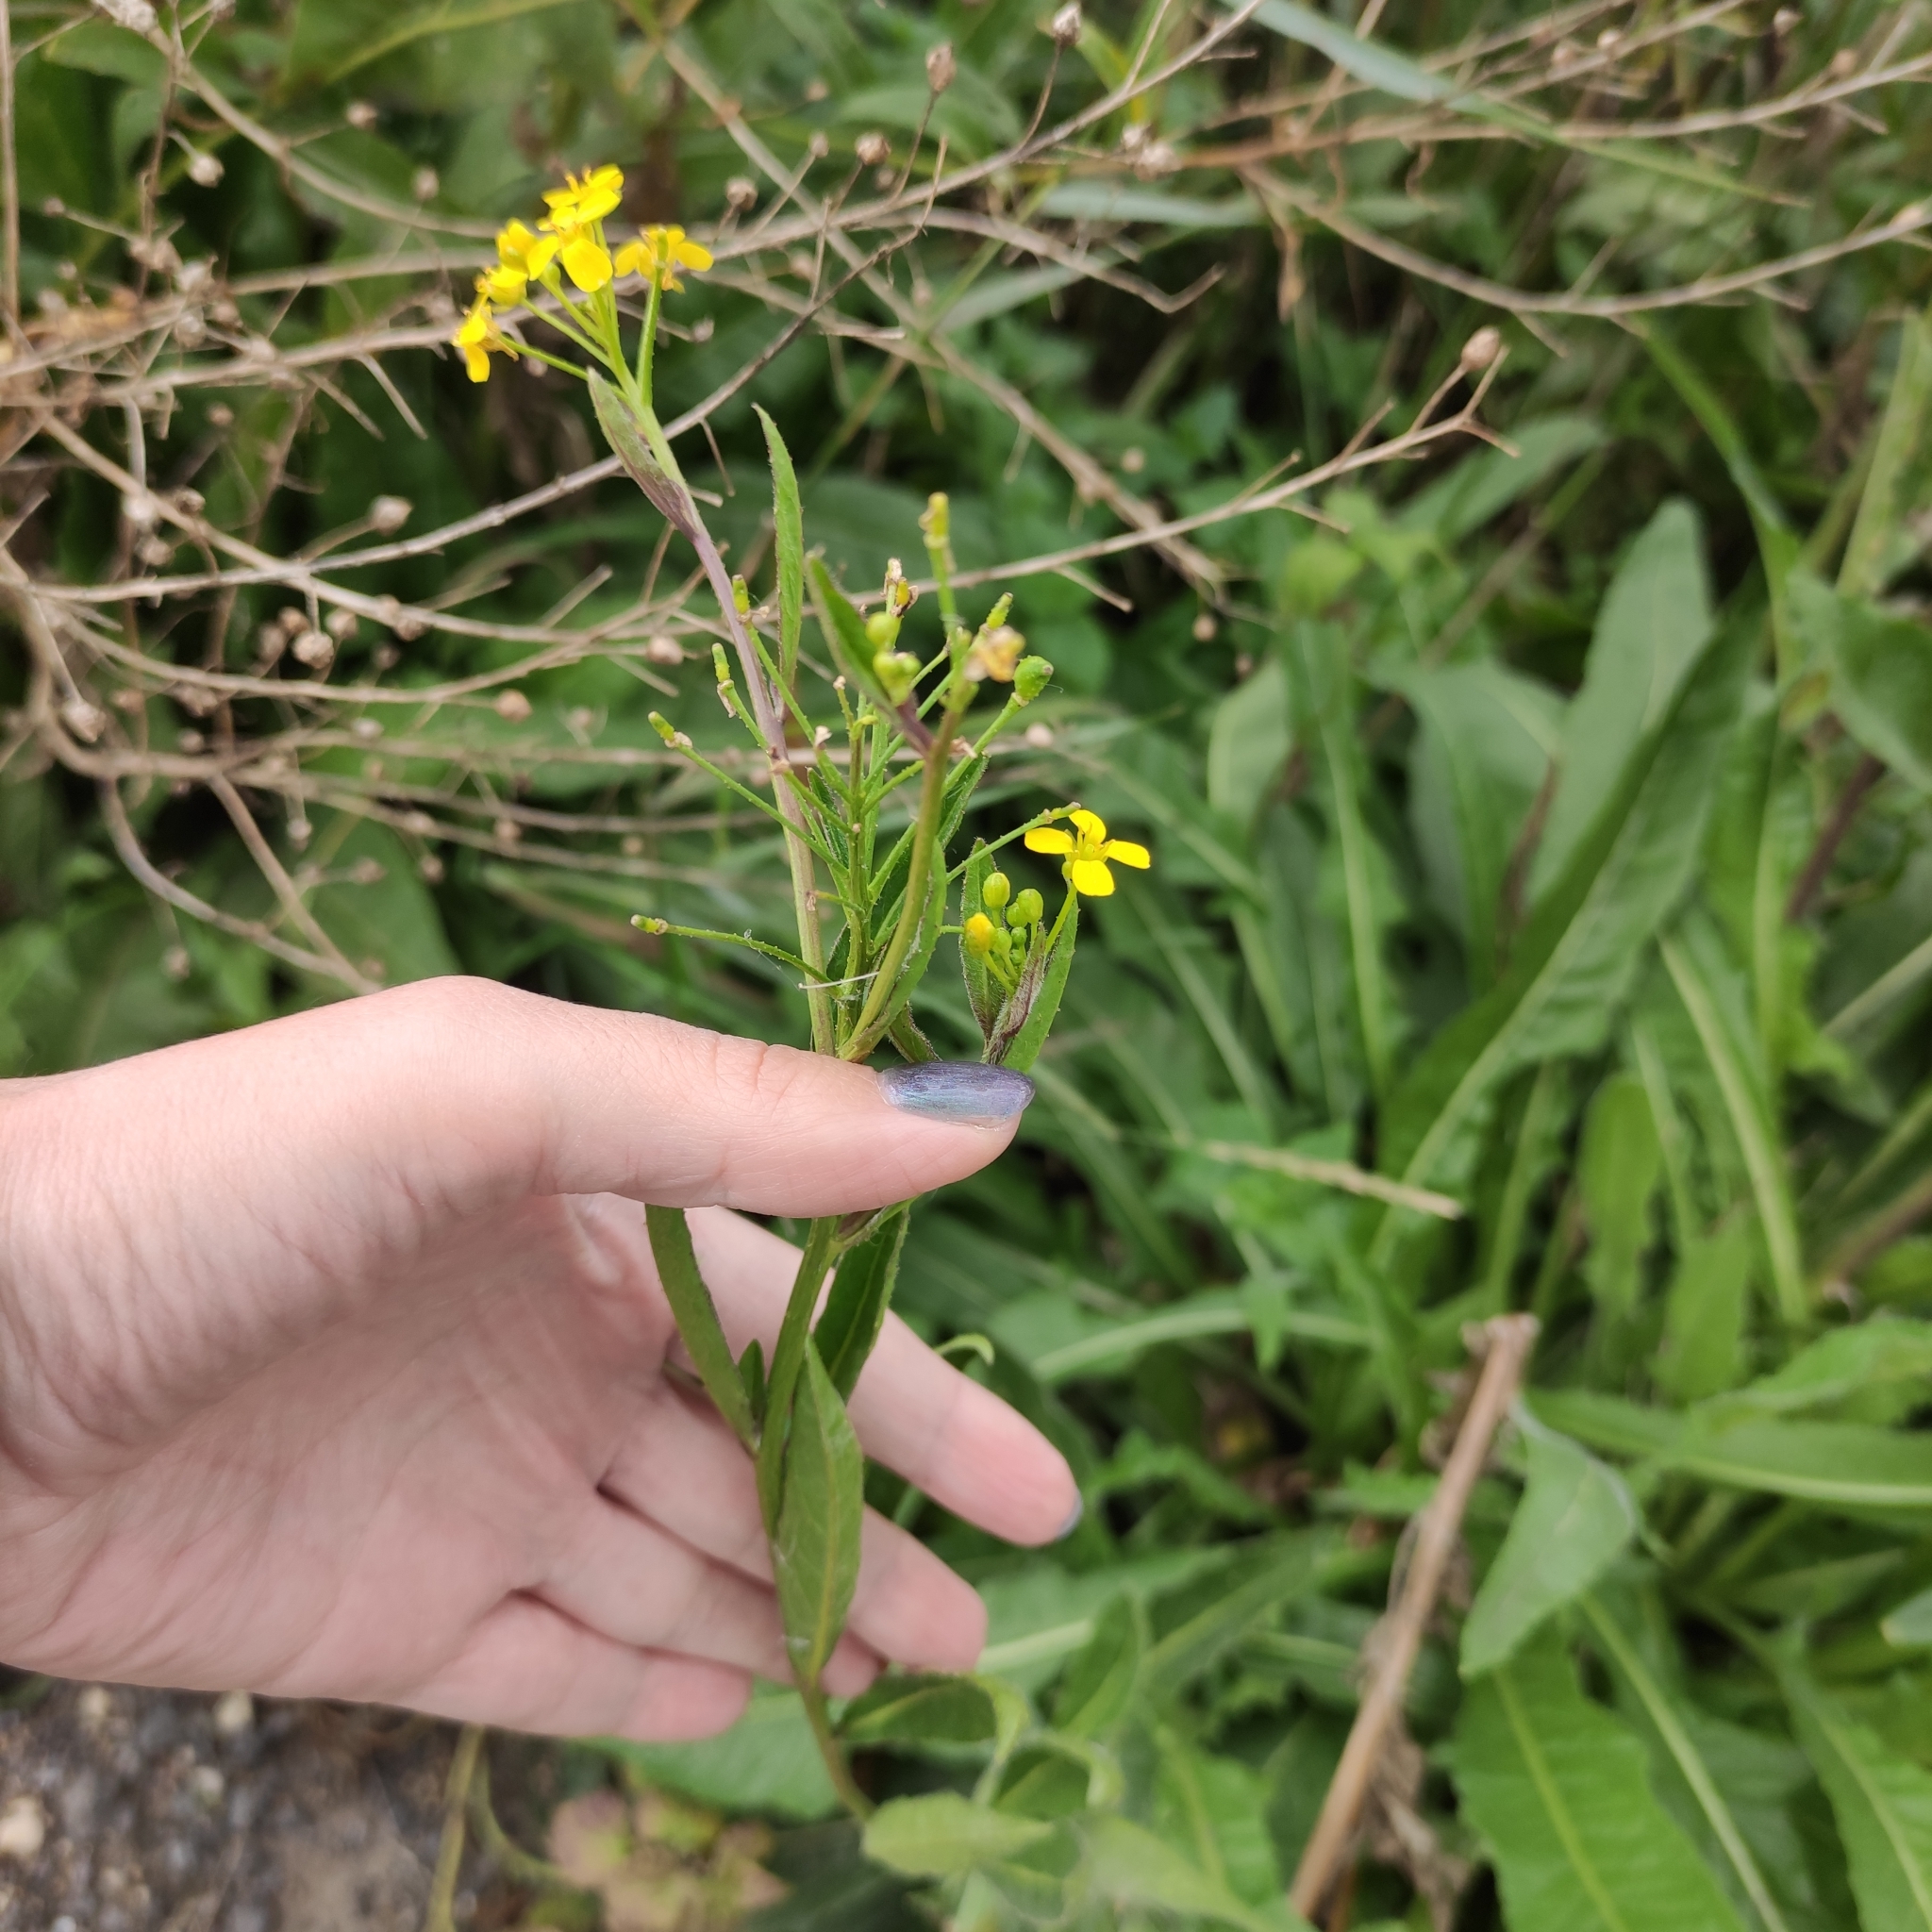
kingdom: Plantae
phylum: Tracheophyta
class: Magnoliopsida
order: Brassicales
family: Brassicaceae
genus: Bunias
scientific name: Bunias orientalis
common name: Warty-cabbage
